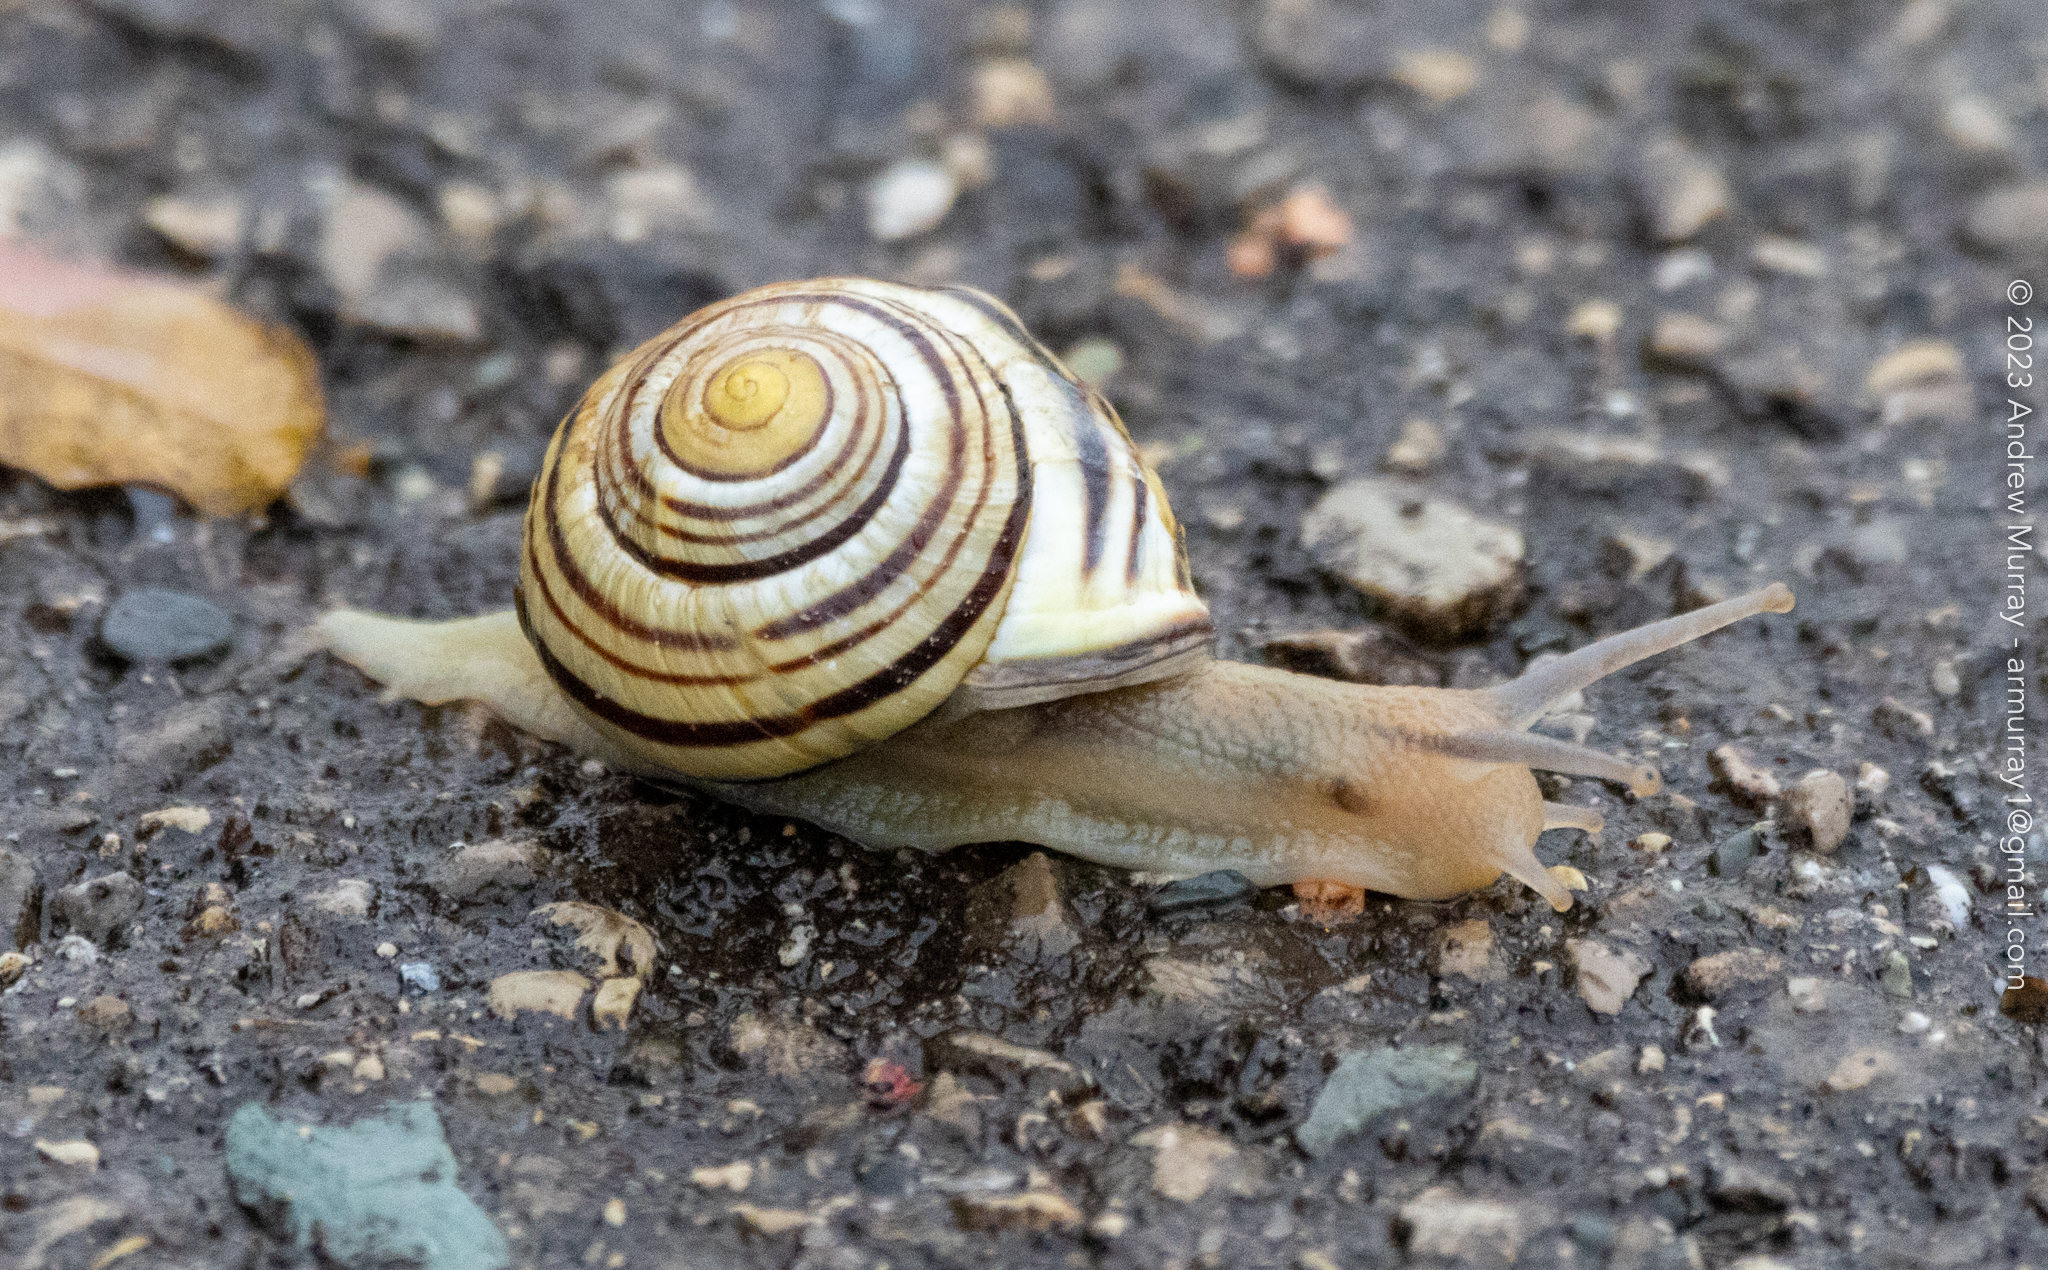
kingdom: Animalia
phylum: Mollusca
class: Gastropoda
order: Stylommatophora
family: Helicidae
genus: Cepaea
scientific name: Cepaea nemoralis
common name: Grovesnail
